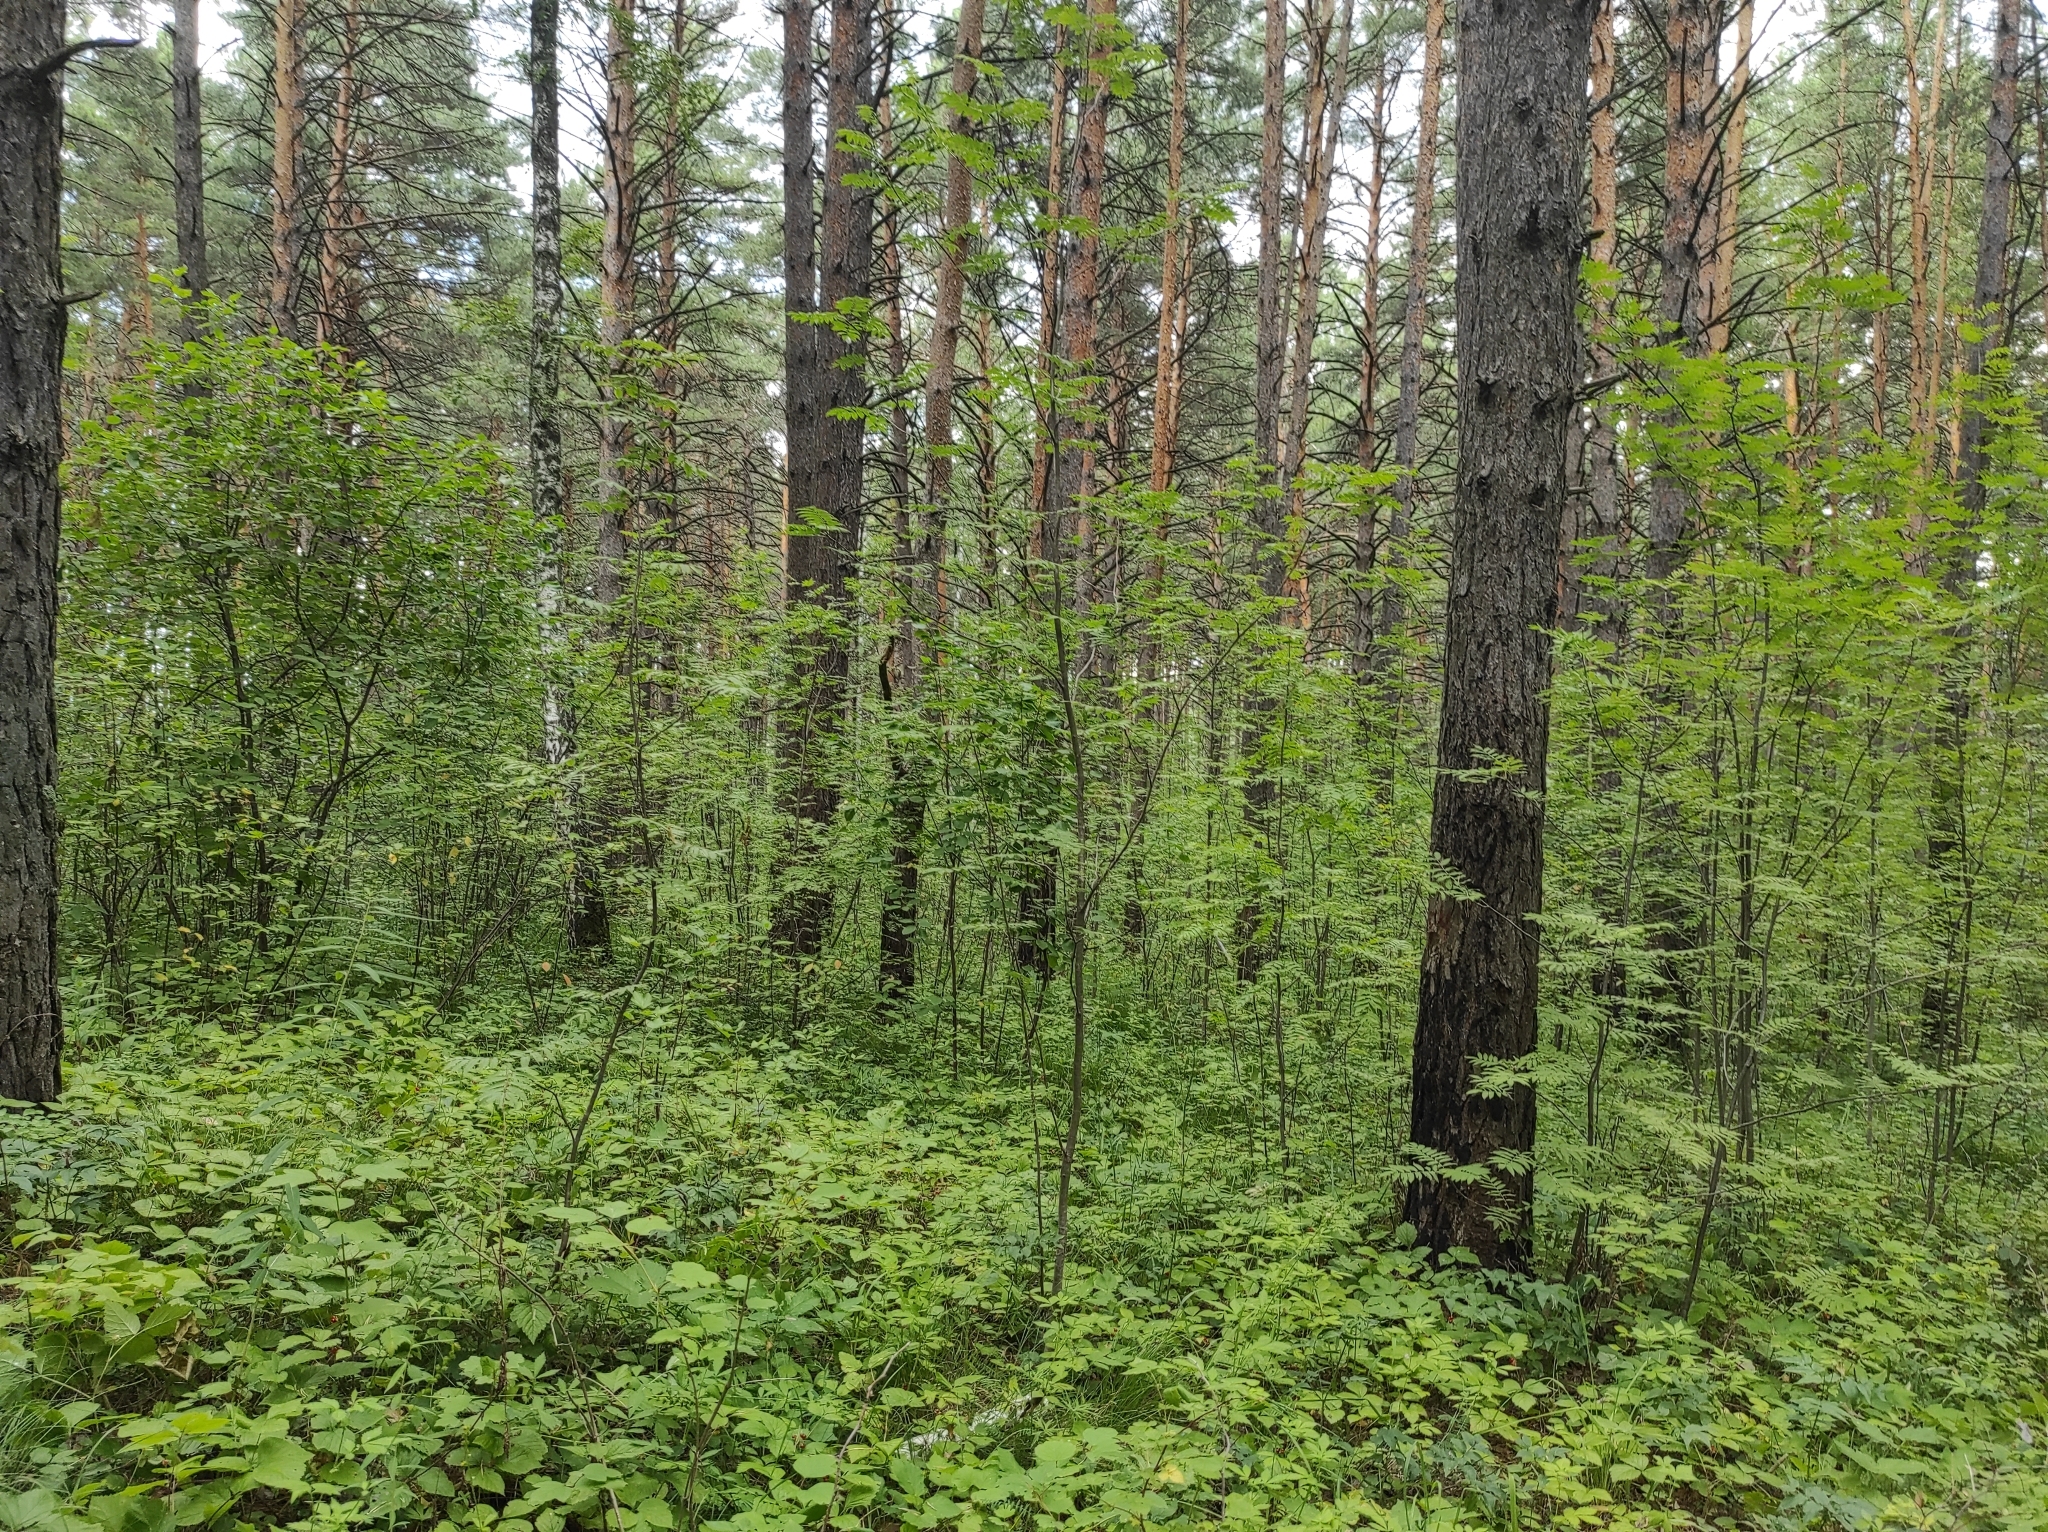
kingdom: Plantae
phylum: Tracheophyta
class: Liliopsida
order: Asparagales
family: Orchidaceae
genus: Hemipilia
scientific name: Hemipilia cucullata
